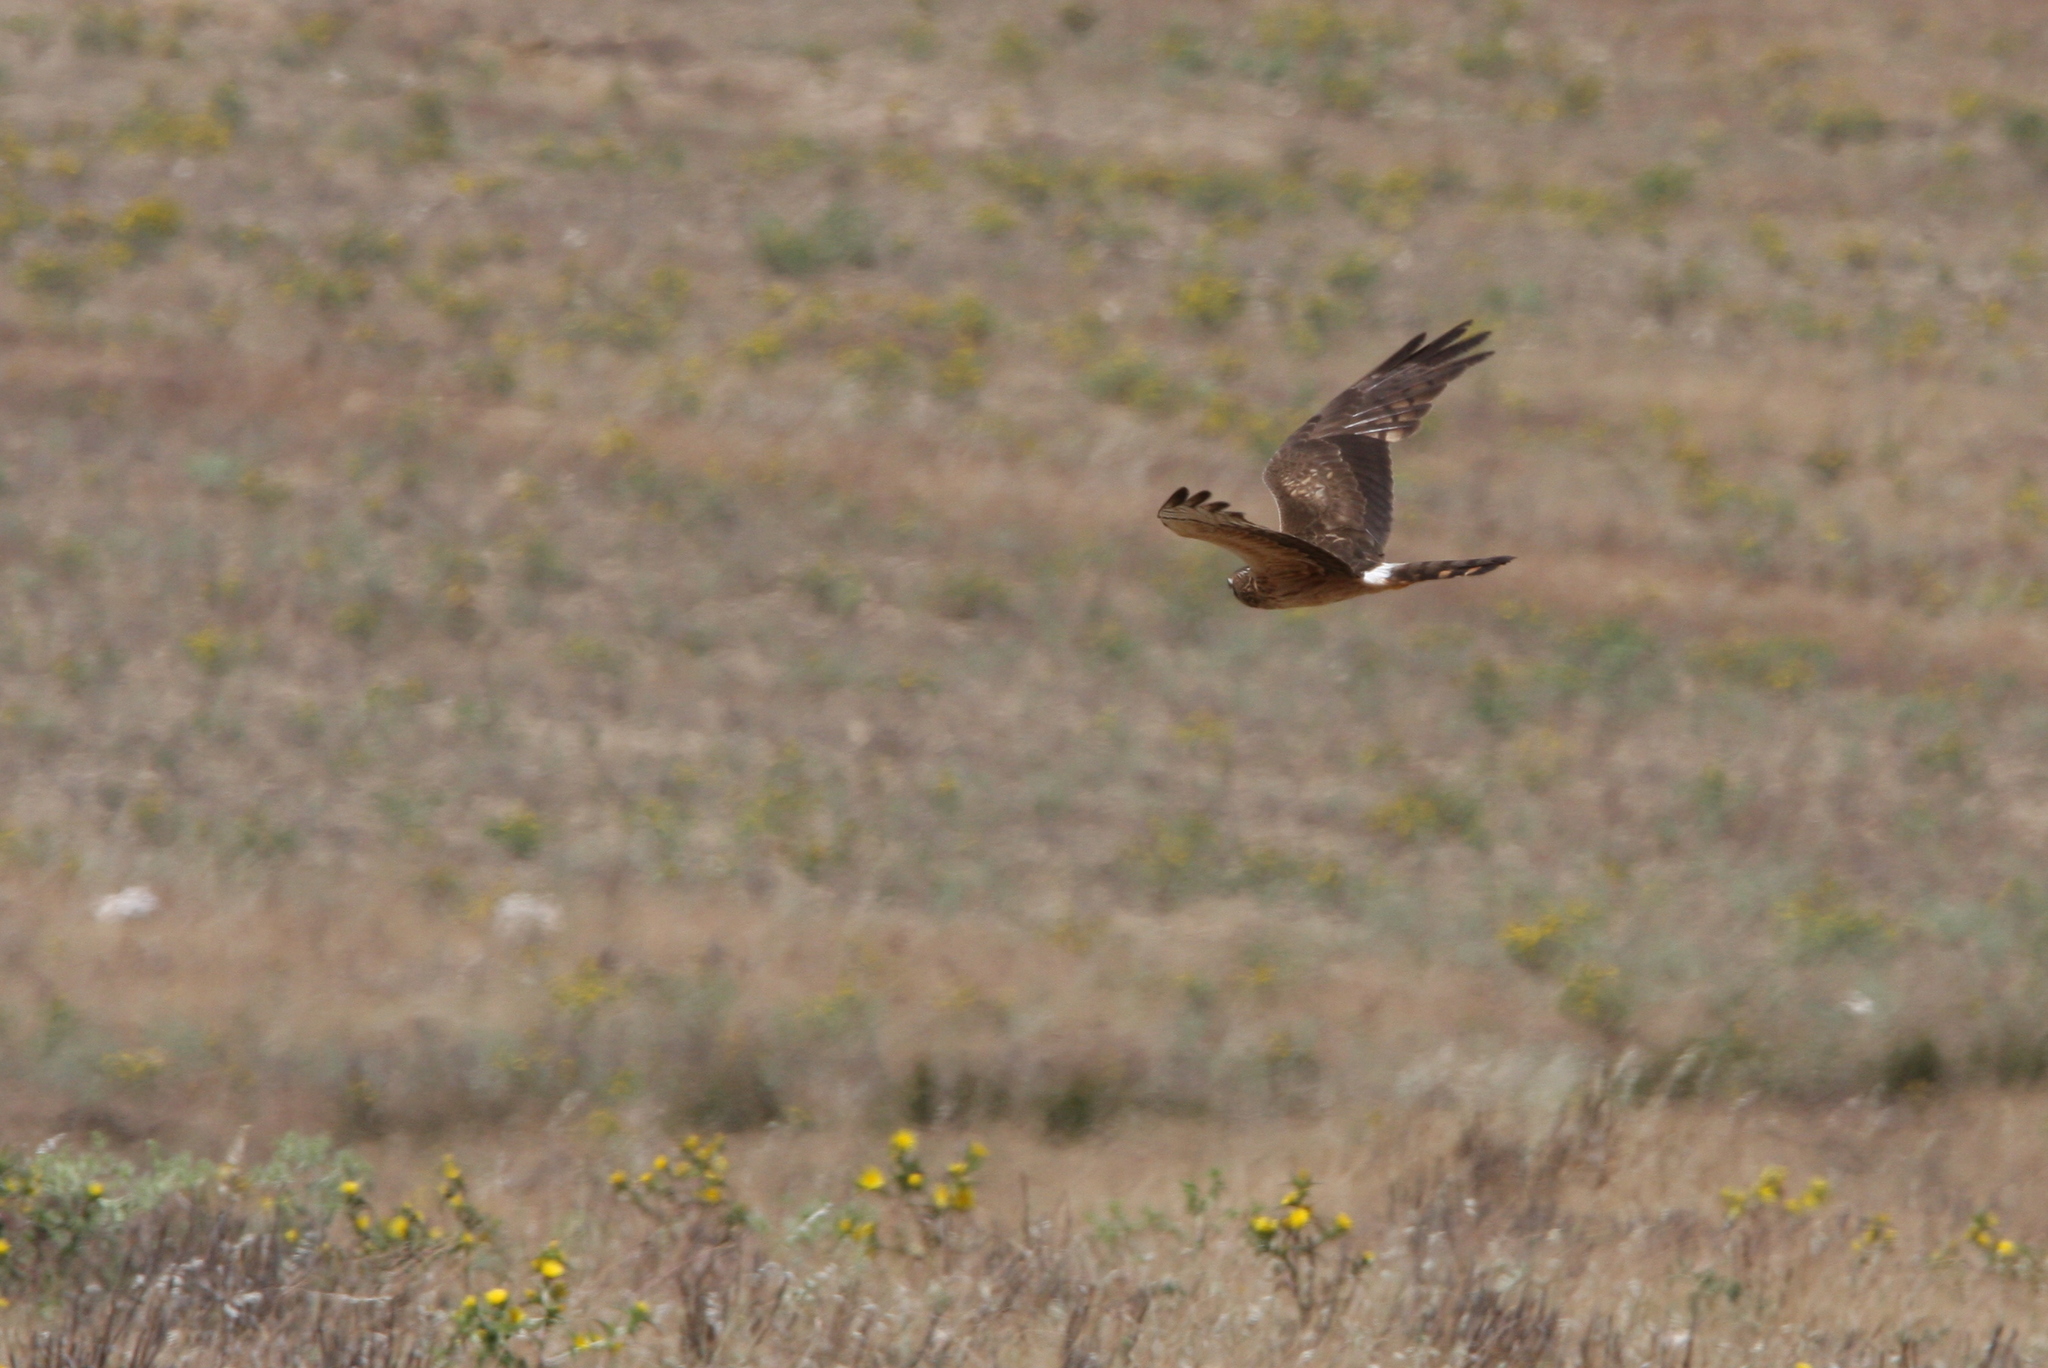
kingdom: Animalia
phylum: Chordata
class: Aves
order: Accipitriformes
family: Accipitridae
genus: Circus
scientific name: Circus pygargus
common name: Montagu's harrier
